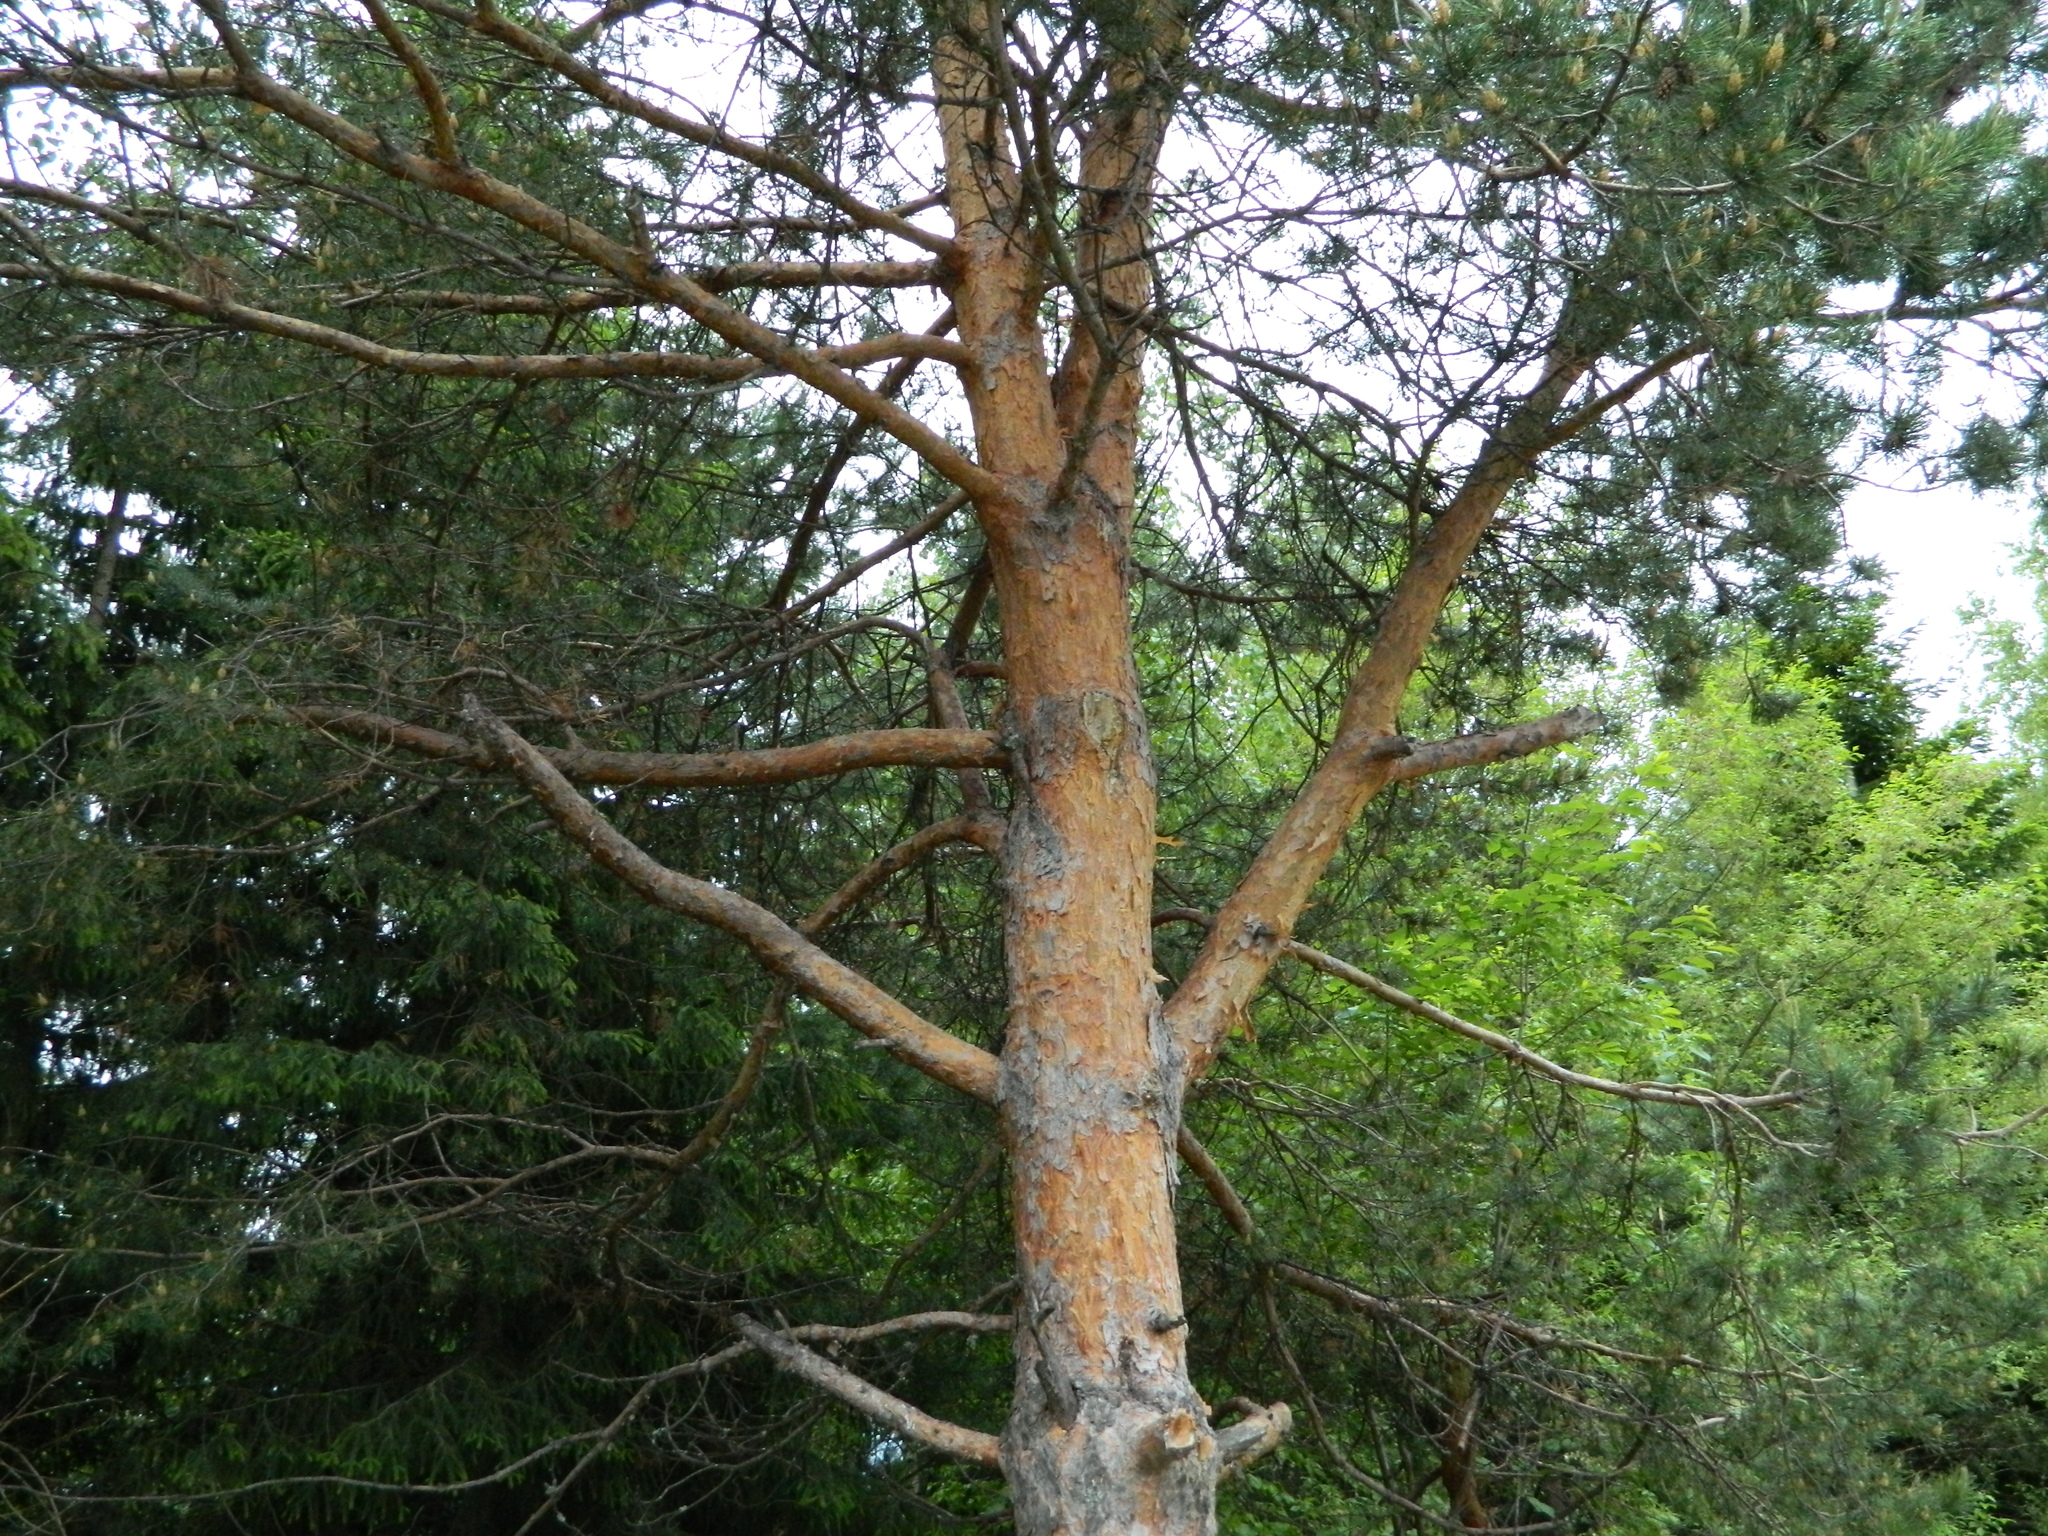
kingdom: Plantae
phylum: Tracheophyta
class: Pinopsida
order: Pinales
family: Pinaceae
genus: Pinus
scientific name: Pinus sylvestris
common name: Scots pine
